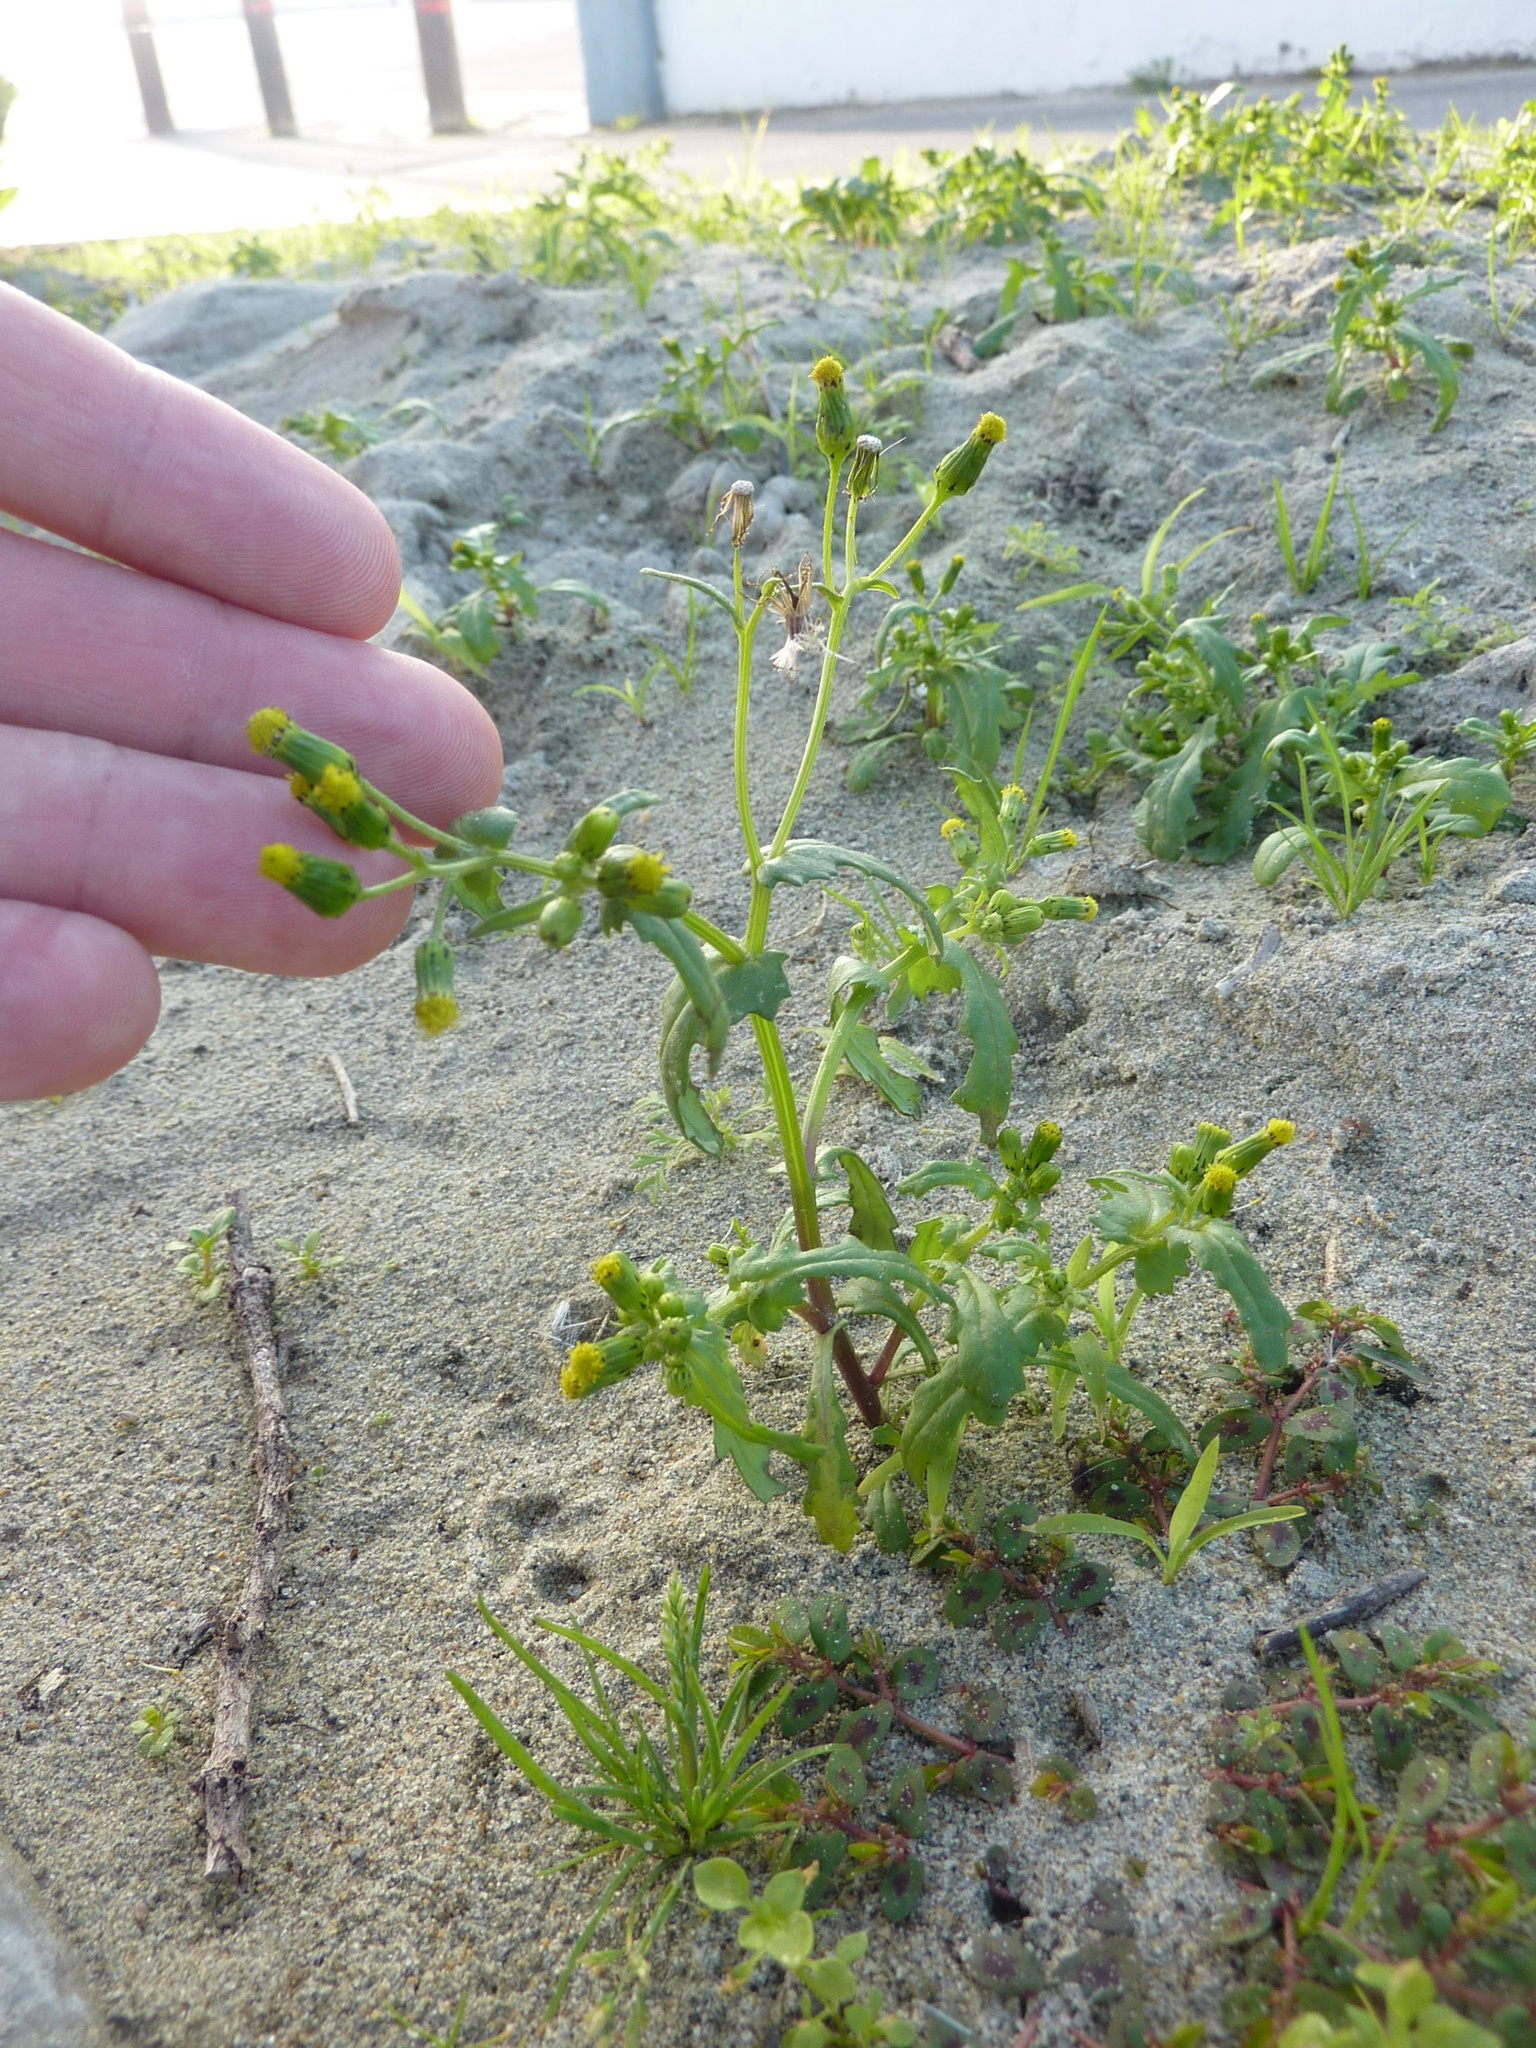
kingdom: Plantae
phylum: Tracheophyta
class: Magnoliopsida
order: Asterales
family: Asteraceae
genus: Senecio
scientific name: Senecio vulgaris
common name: Old-man-in-the-spring
